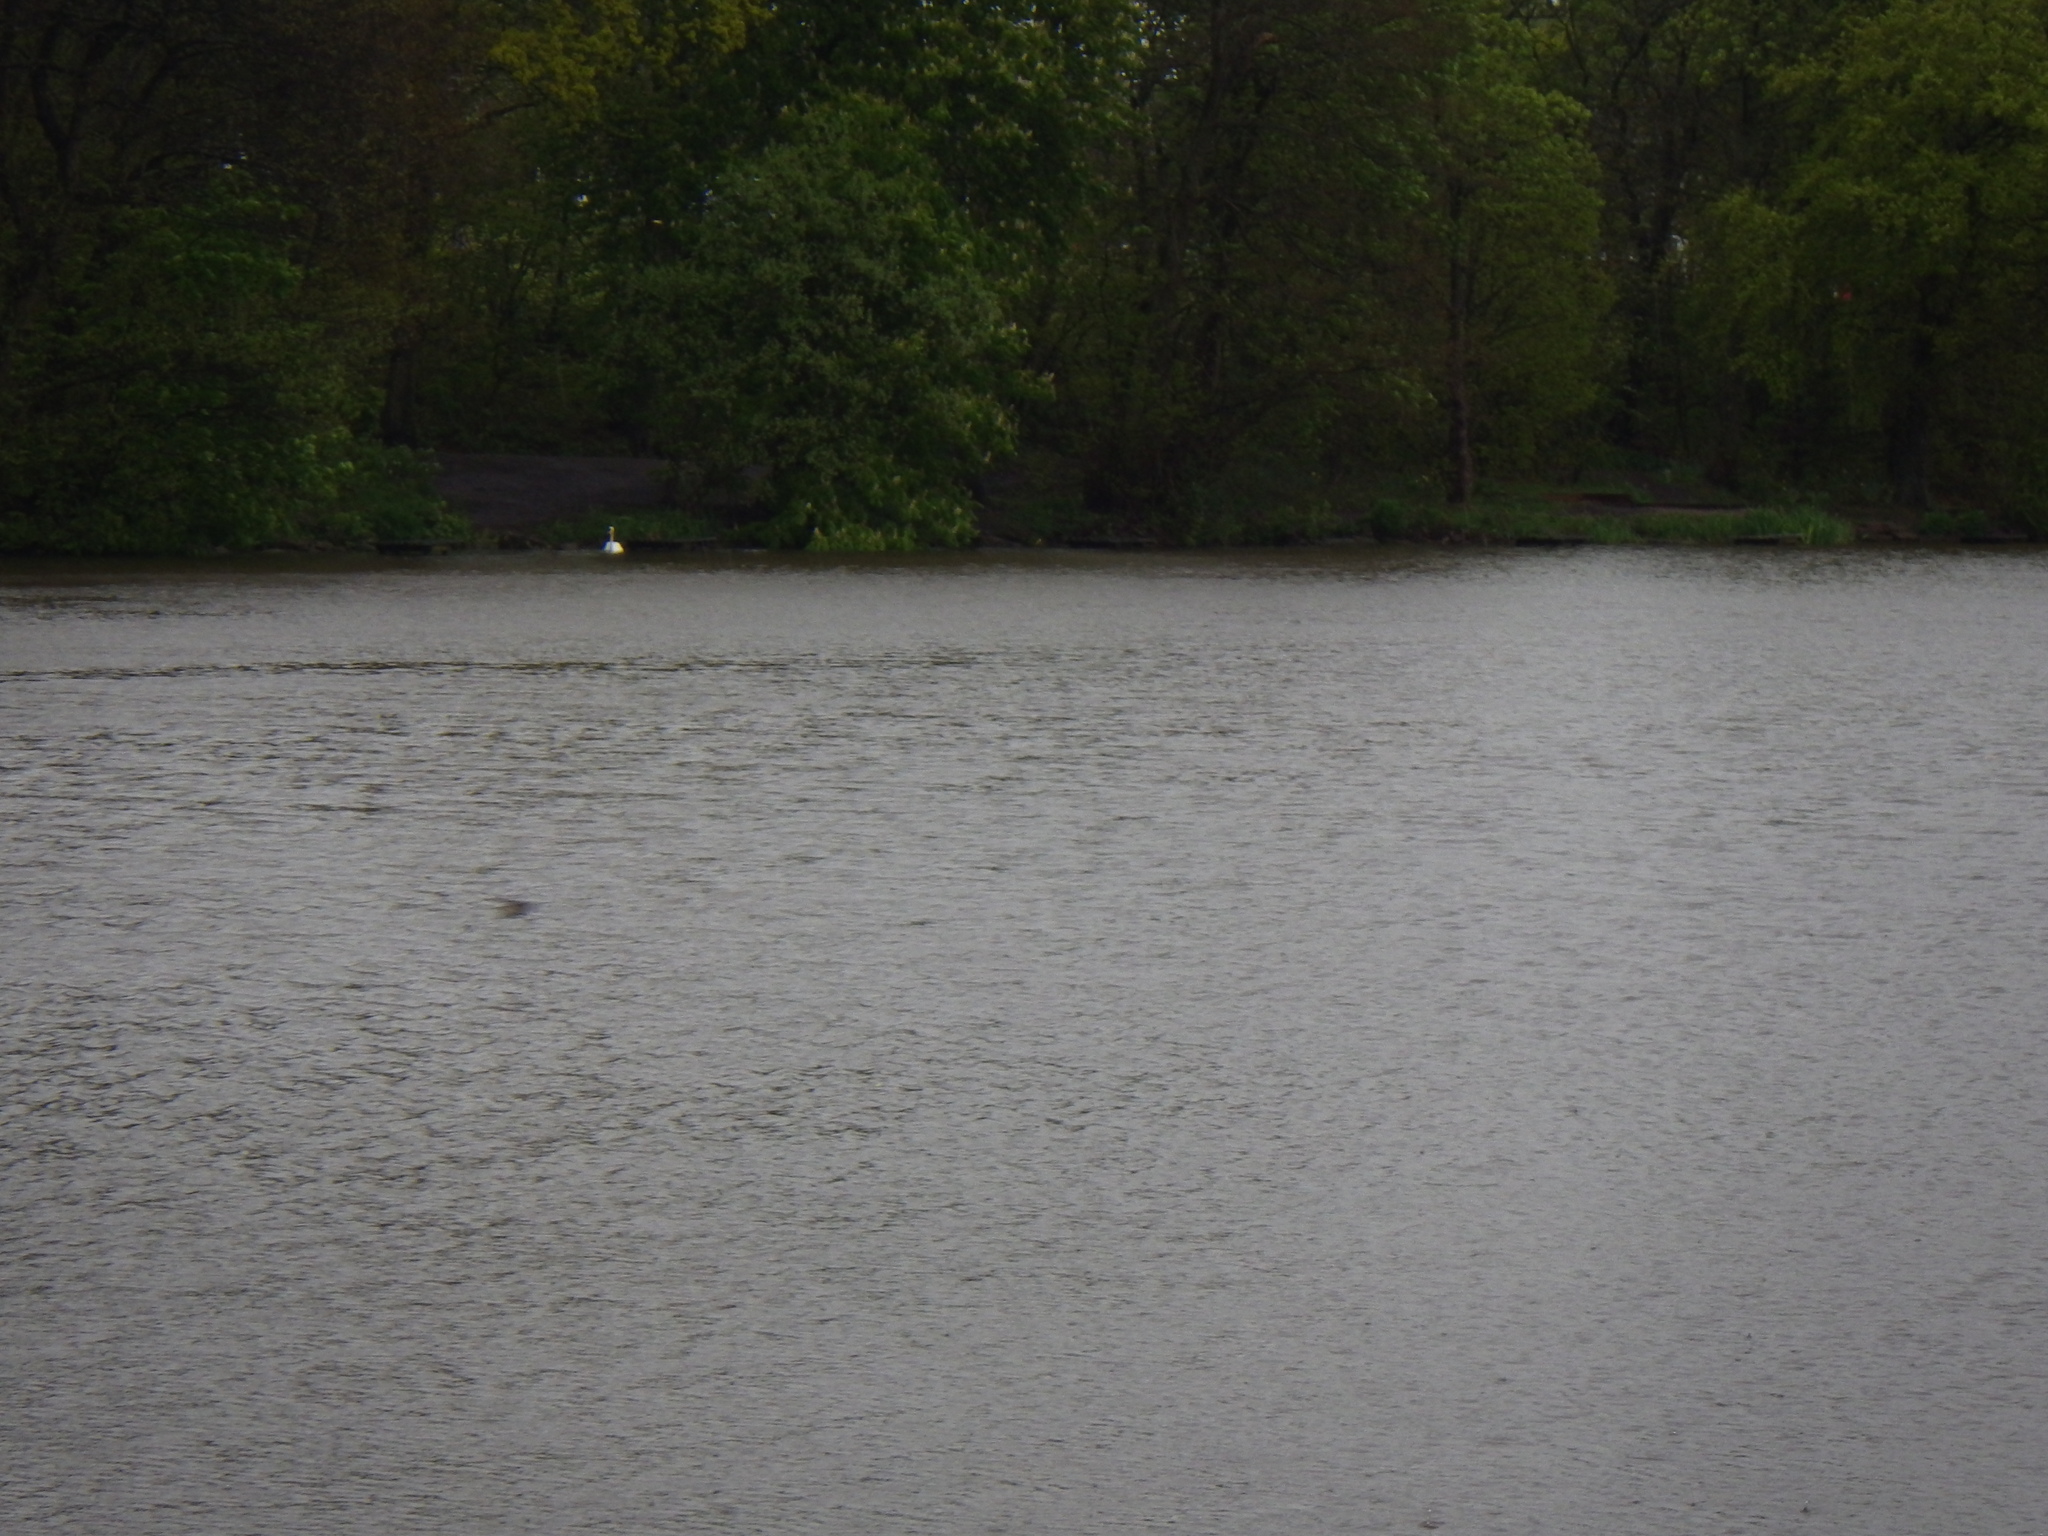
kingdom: Animalia
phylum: Chordata
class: Aves
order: Anseriformes
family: Anatidae
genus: Cygnus
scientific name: Cygnus olor
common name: Mute swan
